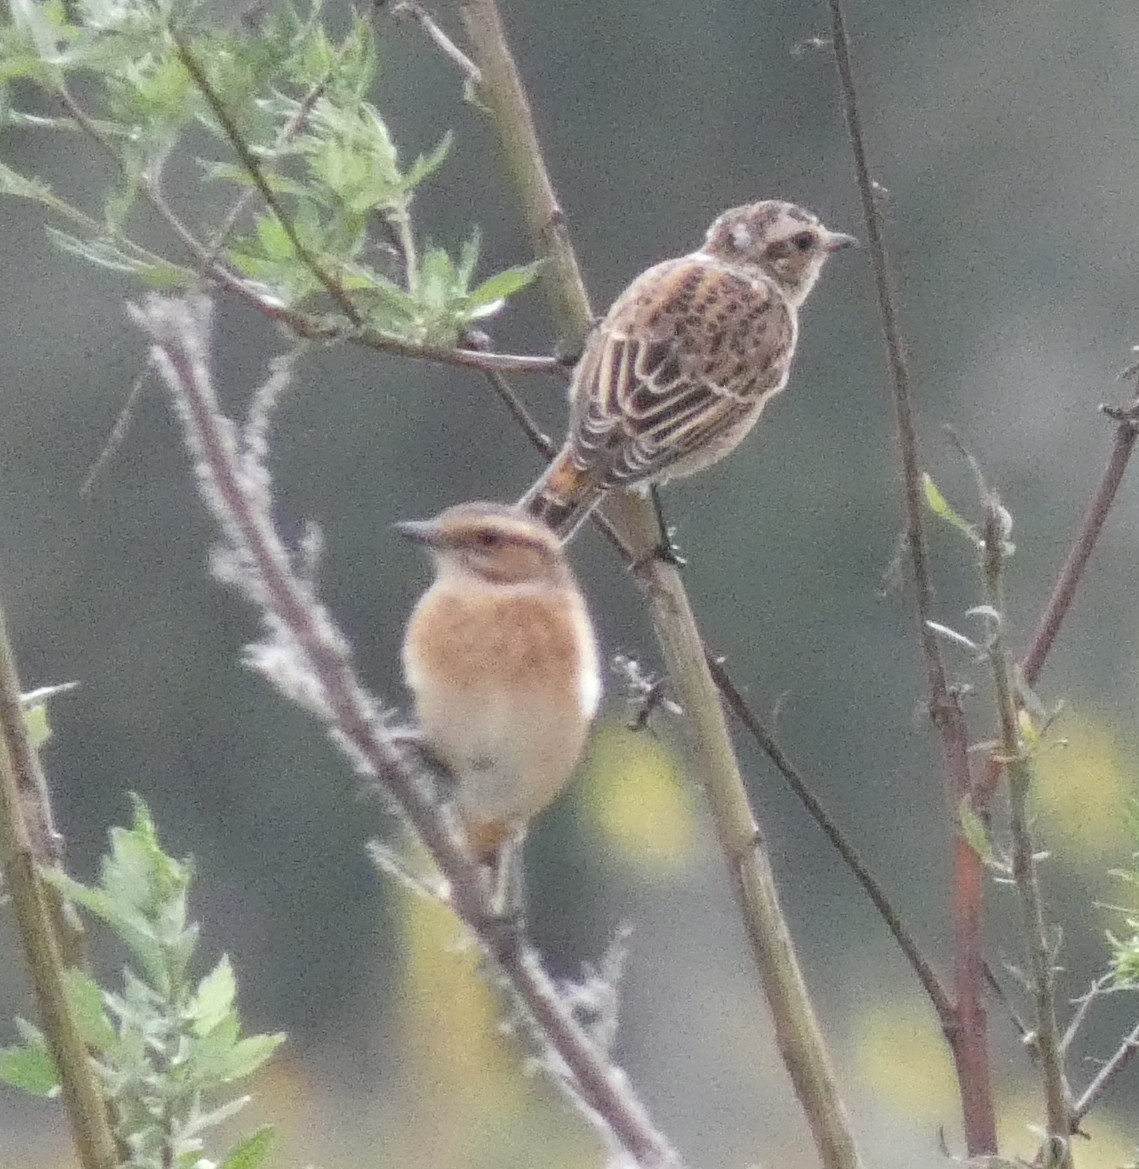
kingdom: Animalia
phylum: Chordata
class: Aves
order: Passeriformes
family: Muscicapidae
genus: Saxicola
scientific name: Saxicola rubetra
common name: Whinchat
